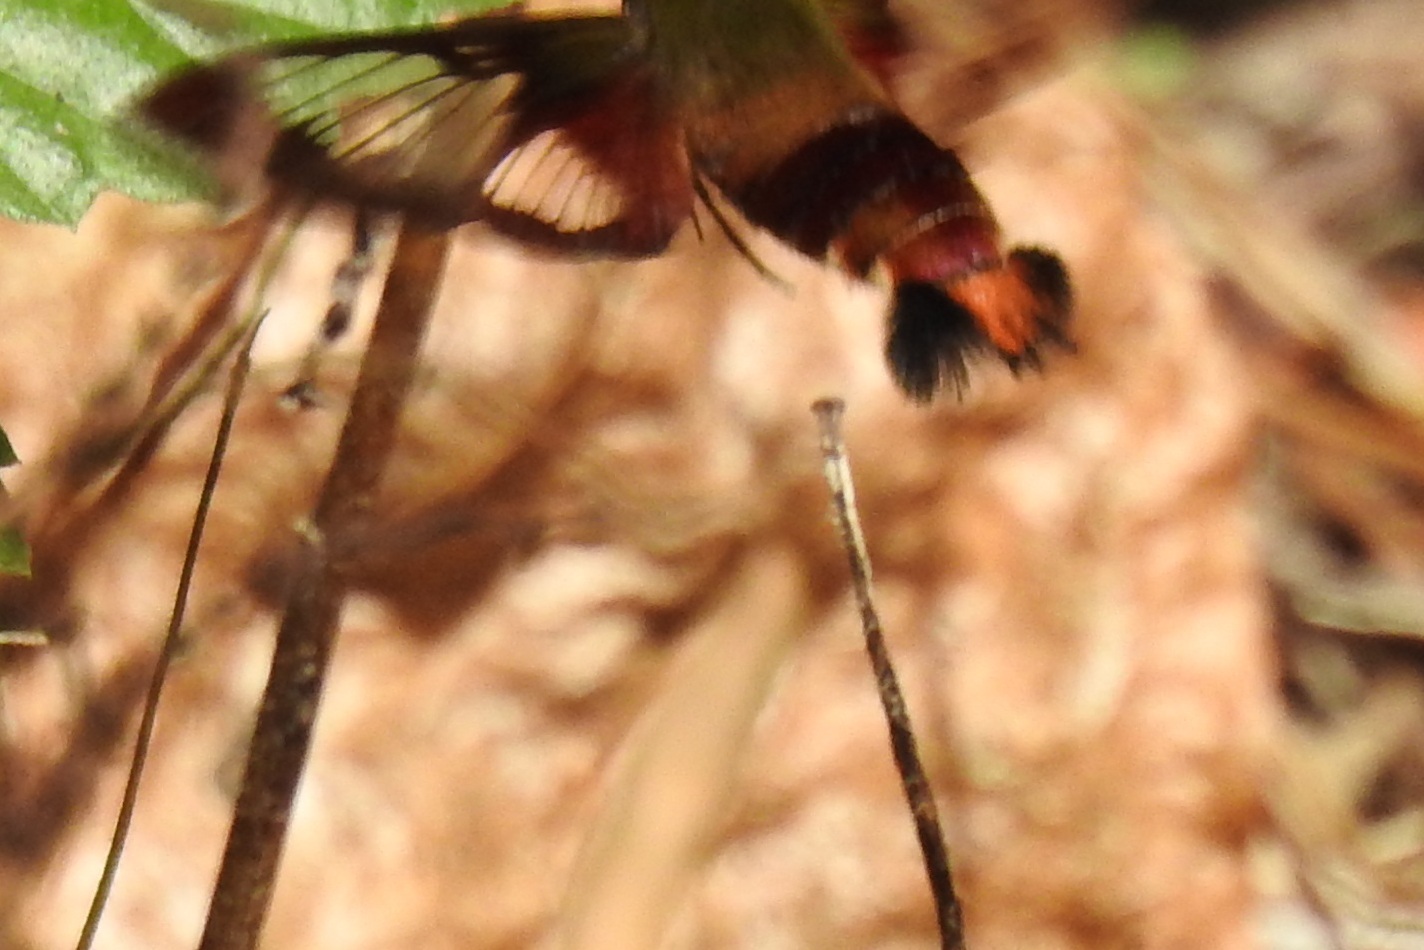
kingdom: Animalia
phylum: Arthropoda
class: Insecta
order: Lepidoptera
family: Sphingidae
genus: Hemaris
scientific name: Hemaris thysbe
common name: Common clear-wing
